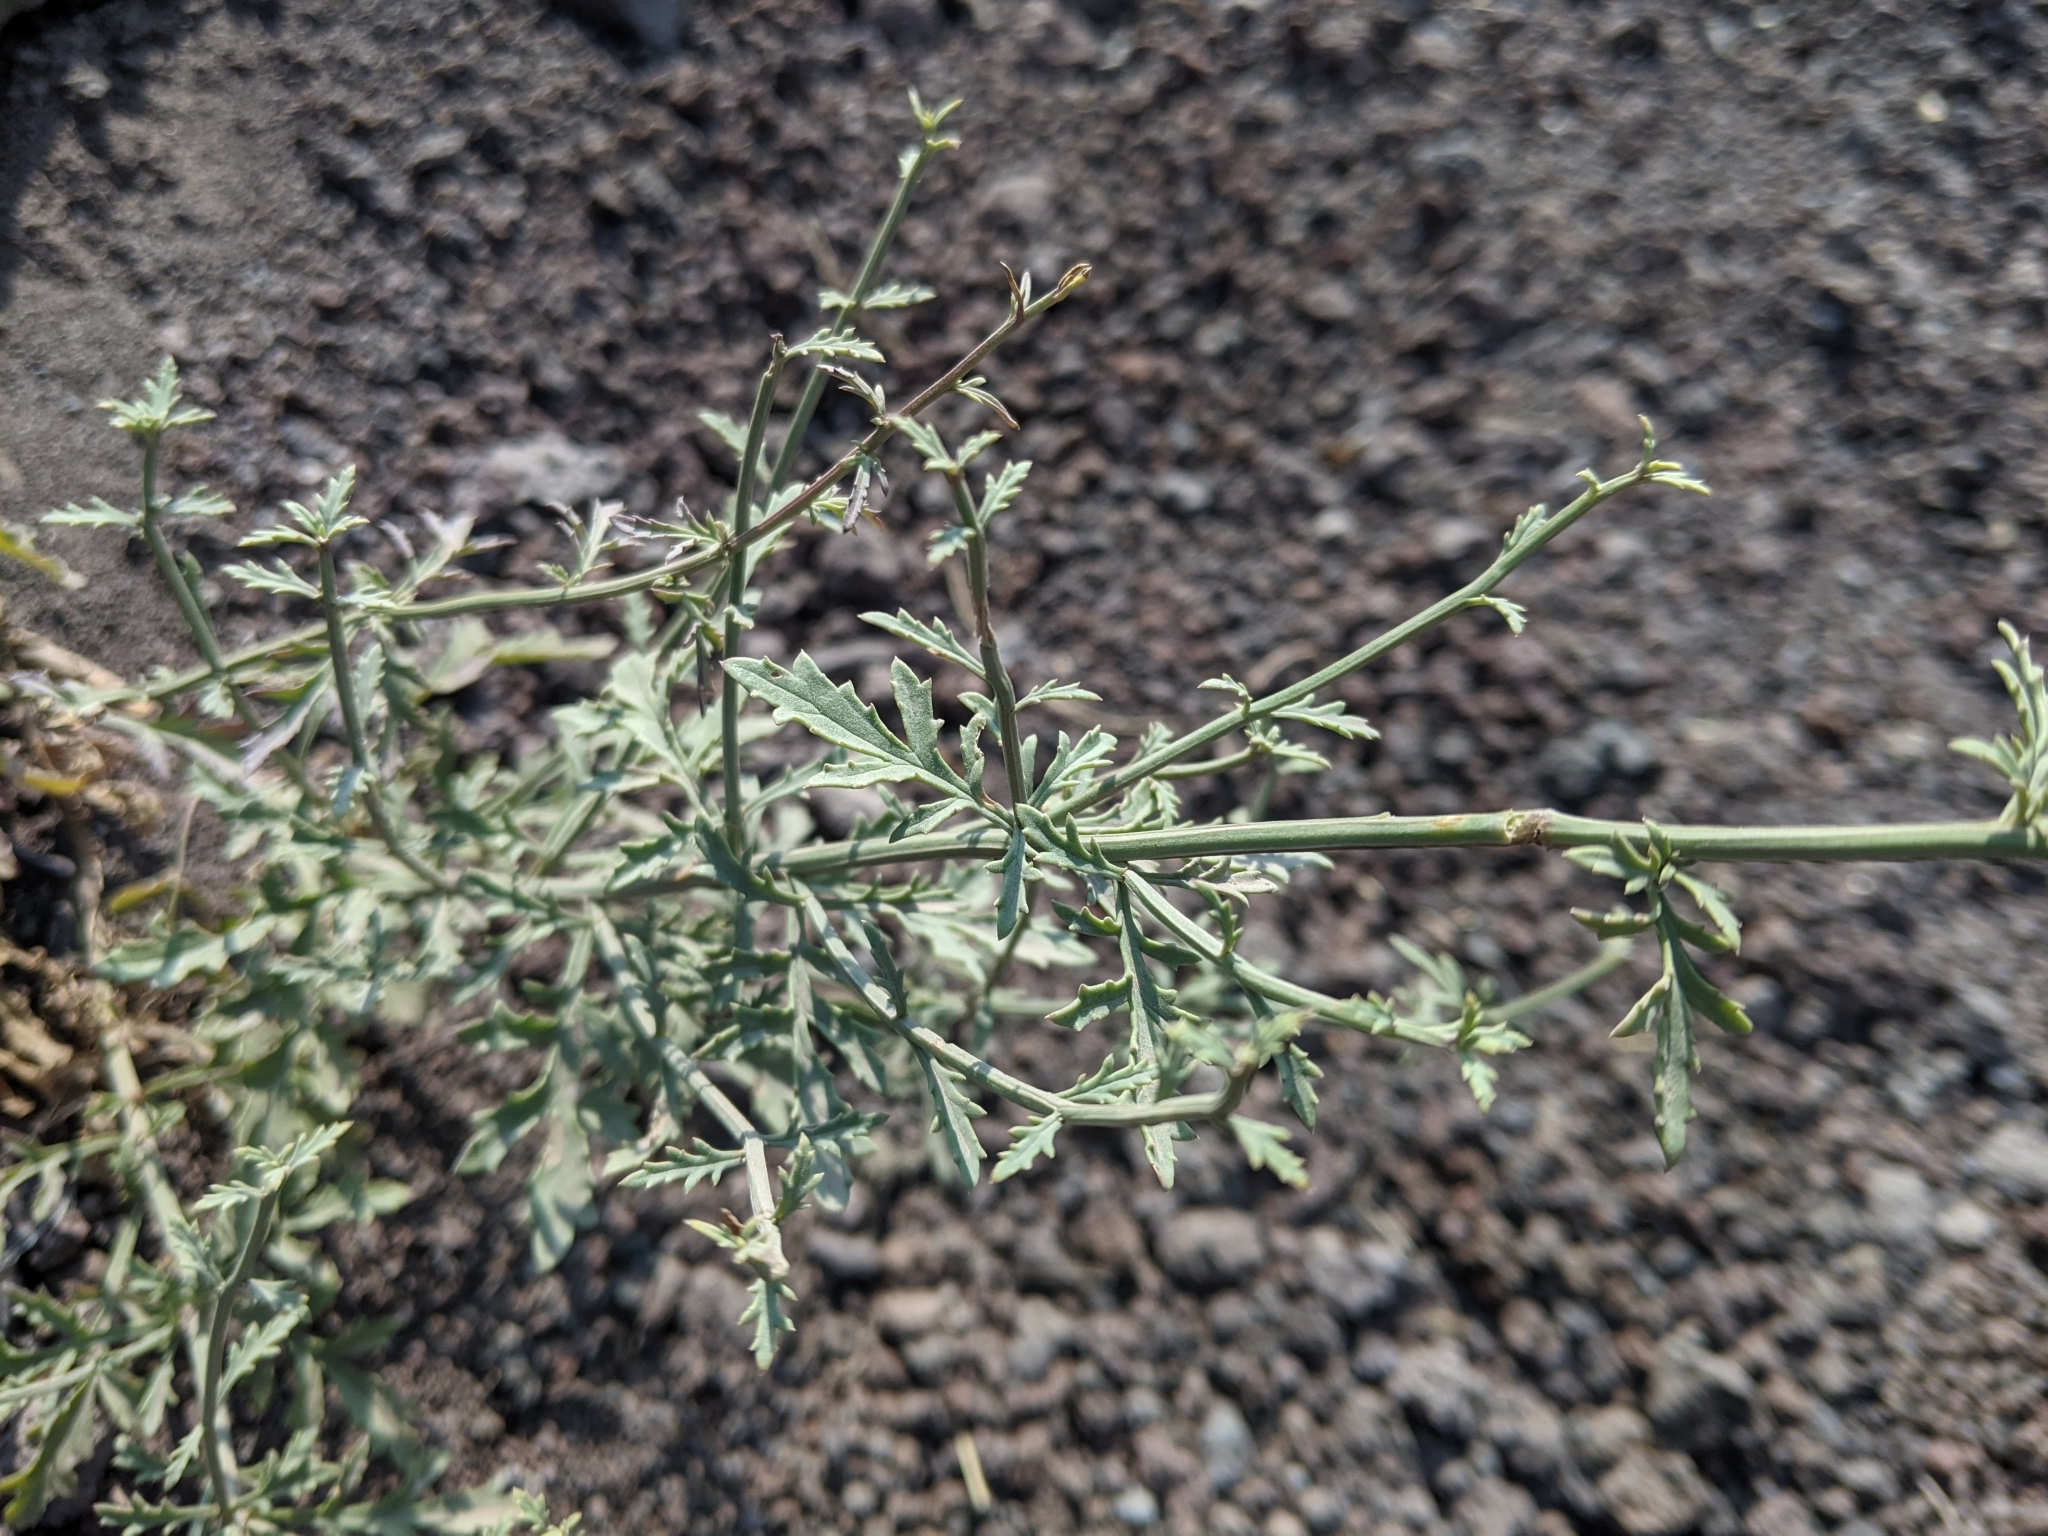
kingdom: Plantae
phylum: Tracheophyta
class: Magnoliopsida
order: Lamiales
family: Plantaginaceae
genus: Linaria
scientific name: Linaria purpurea
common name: Purple toadflax
